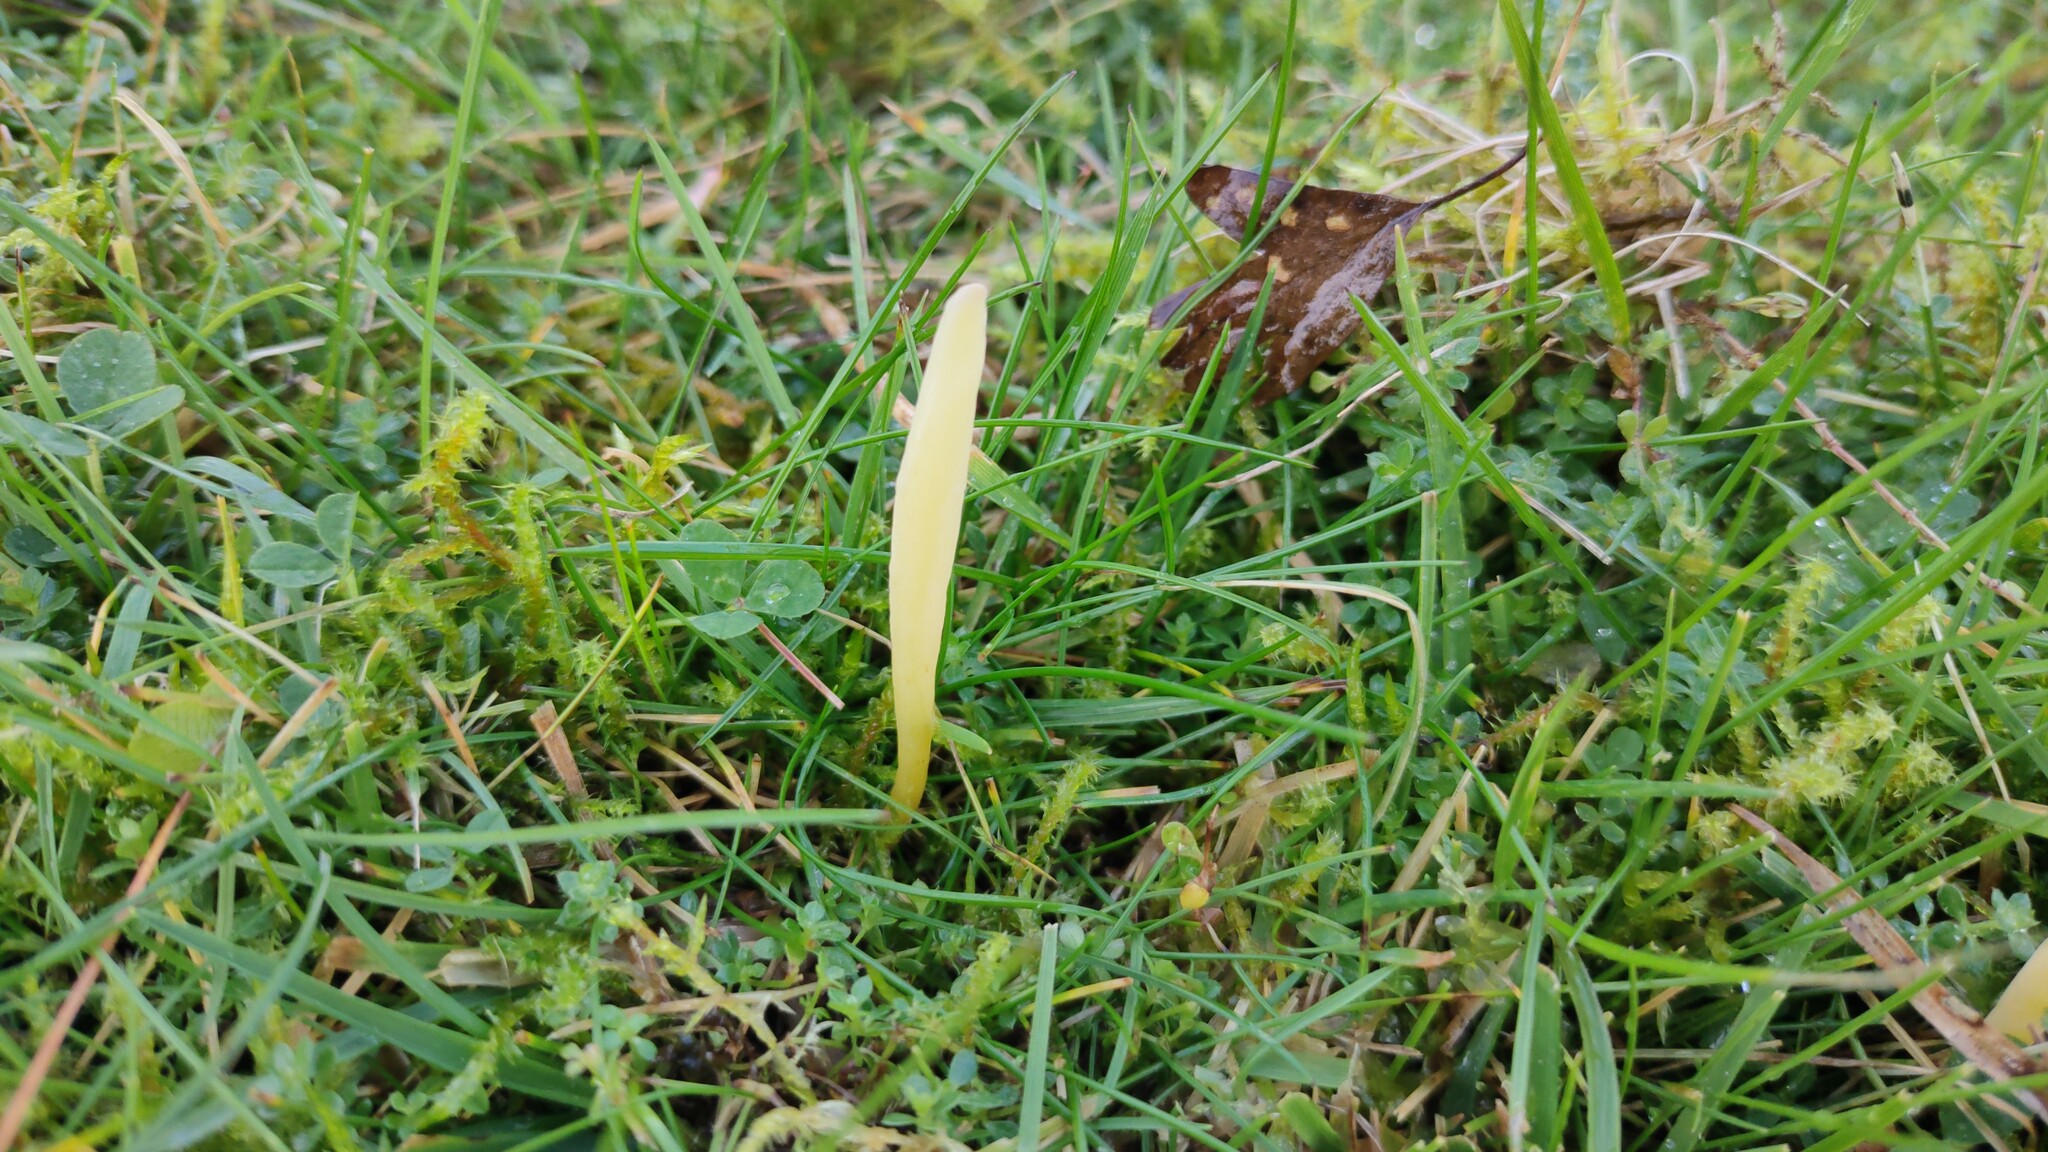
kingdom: Fungi
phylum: Basidiomycota
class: Agaricomycetes
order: Agaricales
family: Clavariaceae
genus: Clavaria
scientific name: Clavaria straminea
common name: Straw club
